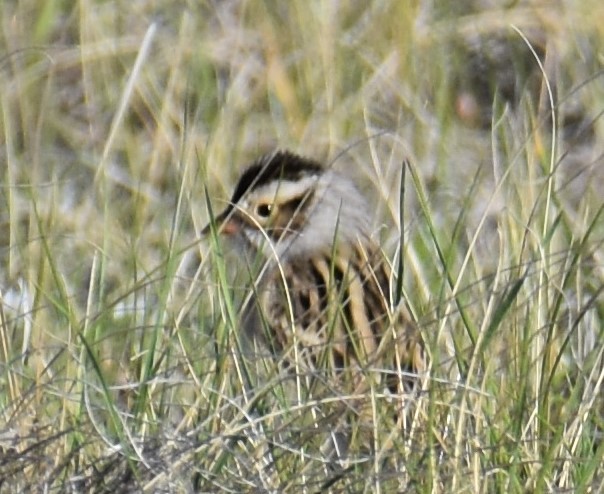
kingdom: Animalia
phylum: Chordata
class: Aves
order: Passeriformes
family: Passerellidae
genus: Spizella
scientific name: Spizella pallida
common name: Clay-colored sparrow
